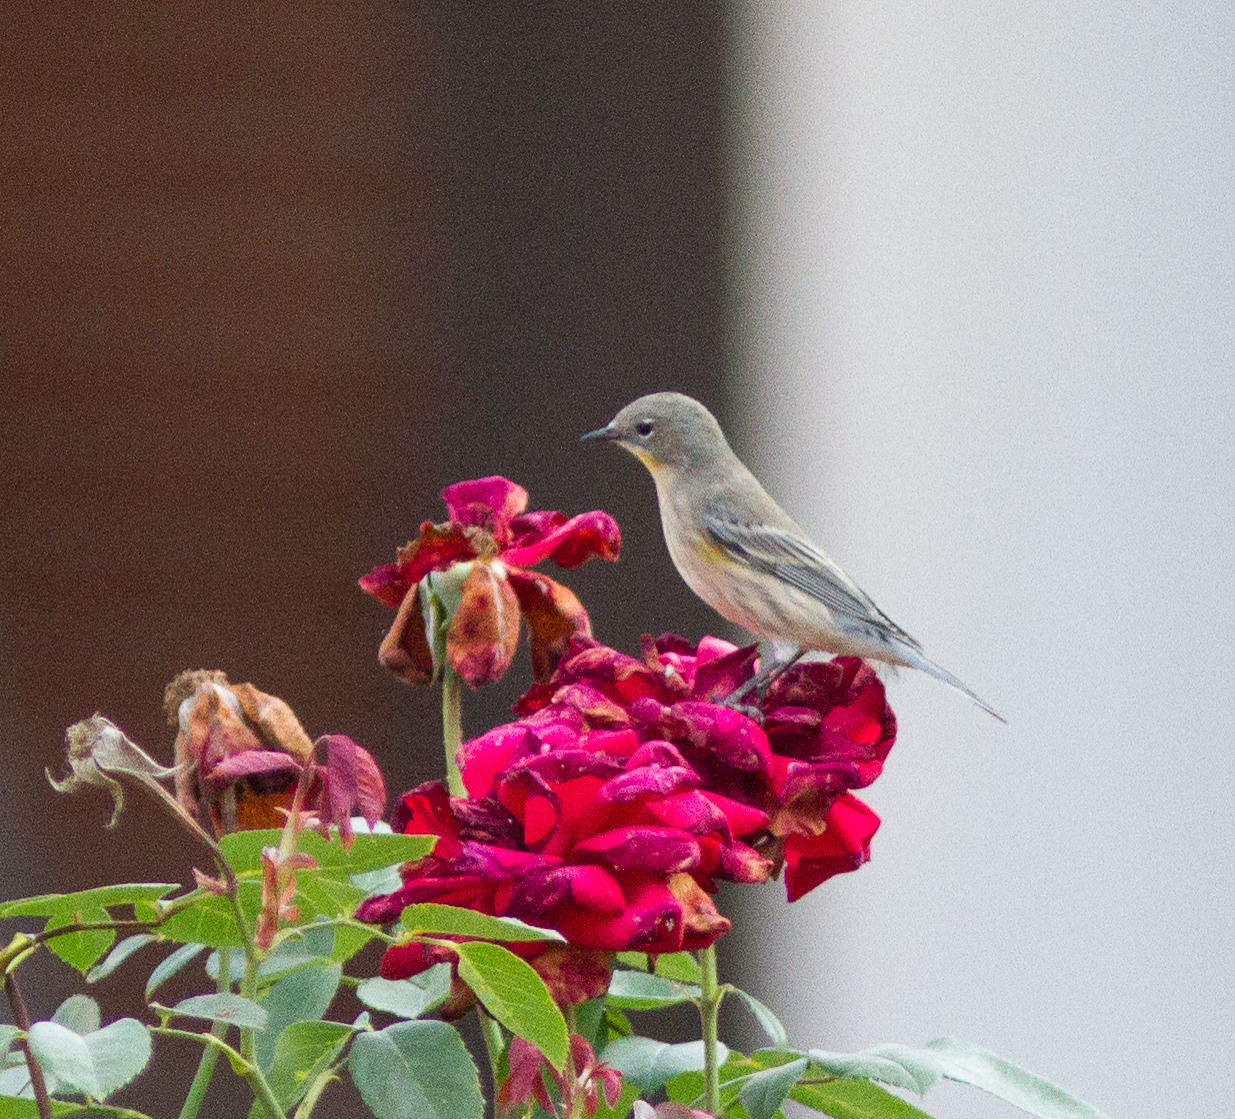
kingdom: Animalia
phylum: Chordata
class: Aves
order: Passeriformes
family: Parulidae
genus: Setophaga
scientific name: Setophaga coronata
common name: Myrtle warbler
